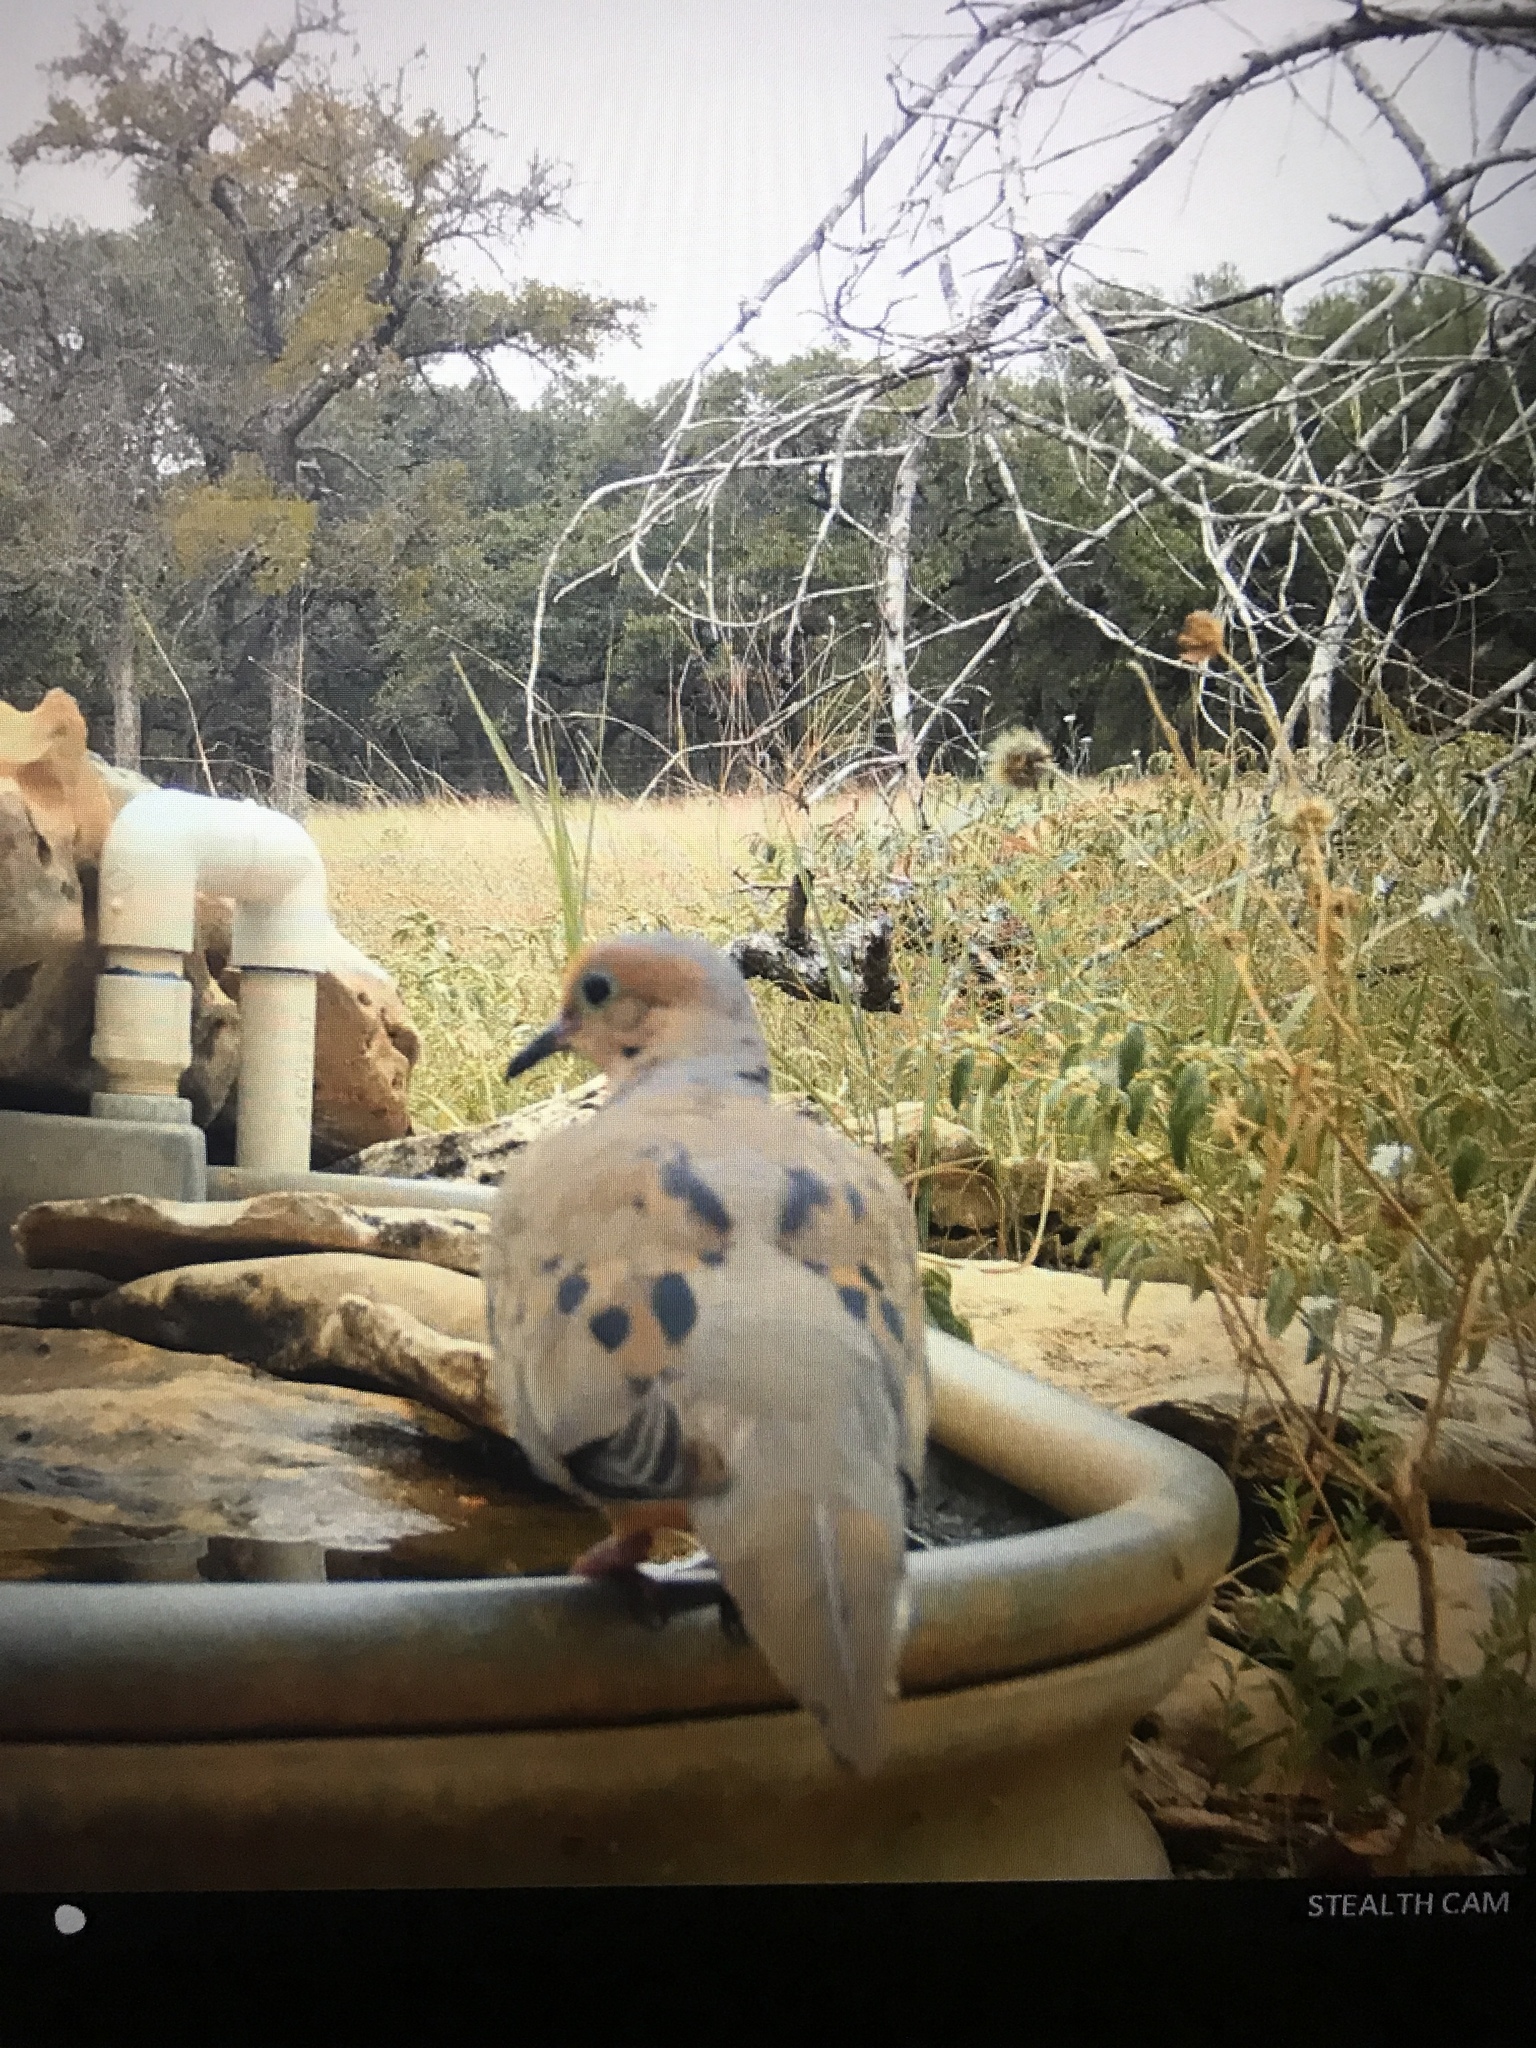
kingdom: Animalia
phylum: Chordata
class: Aves
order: Columbiformes
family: Columbidae
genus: Zenaida
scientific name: Zenaida macroura
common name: Mourning dove
